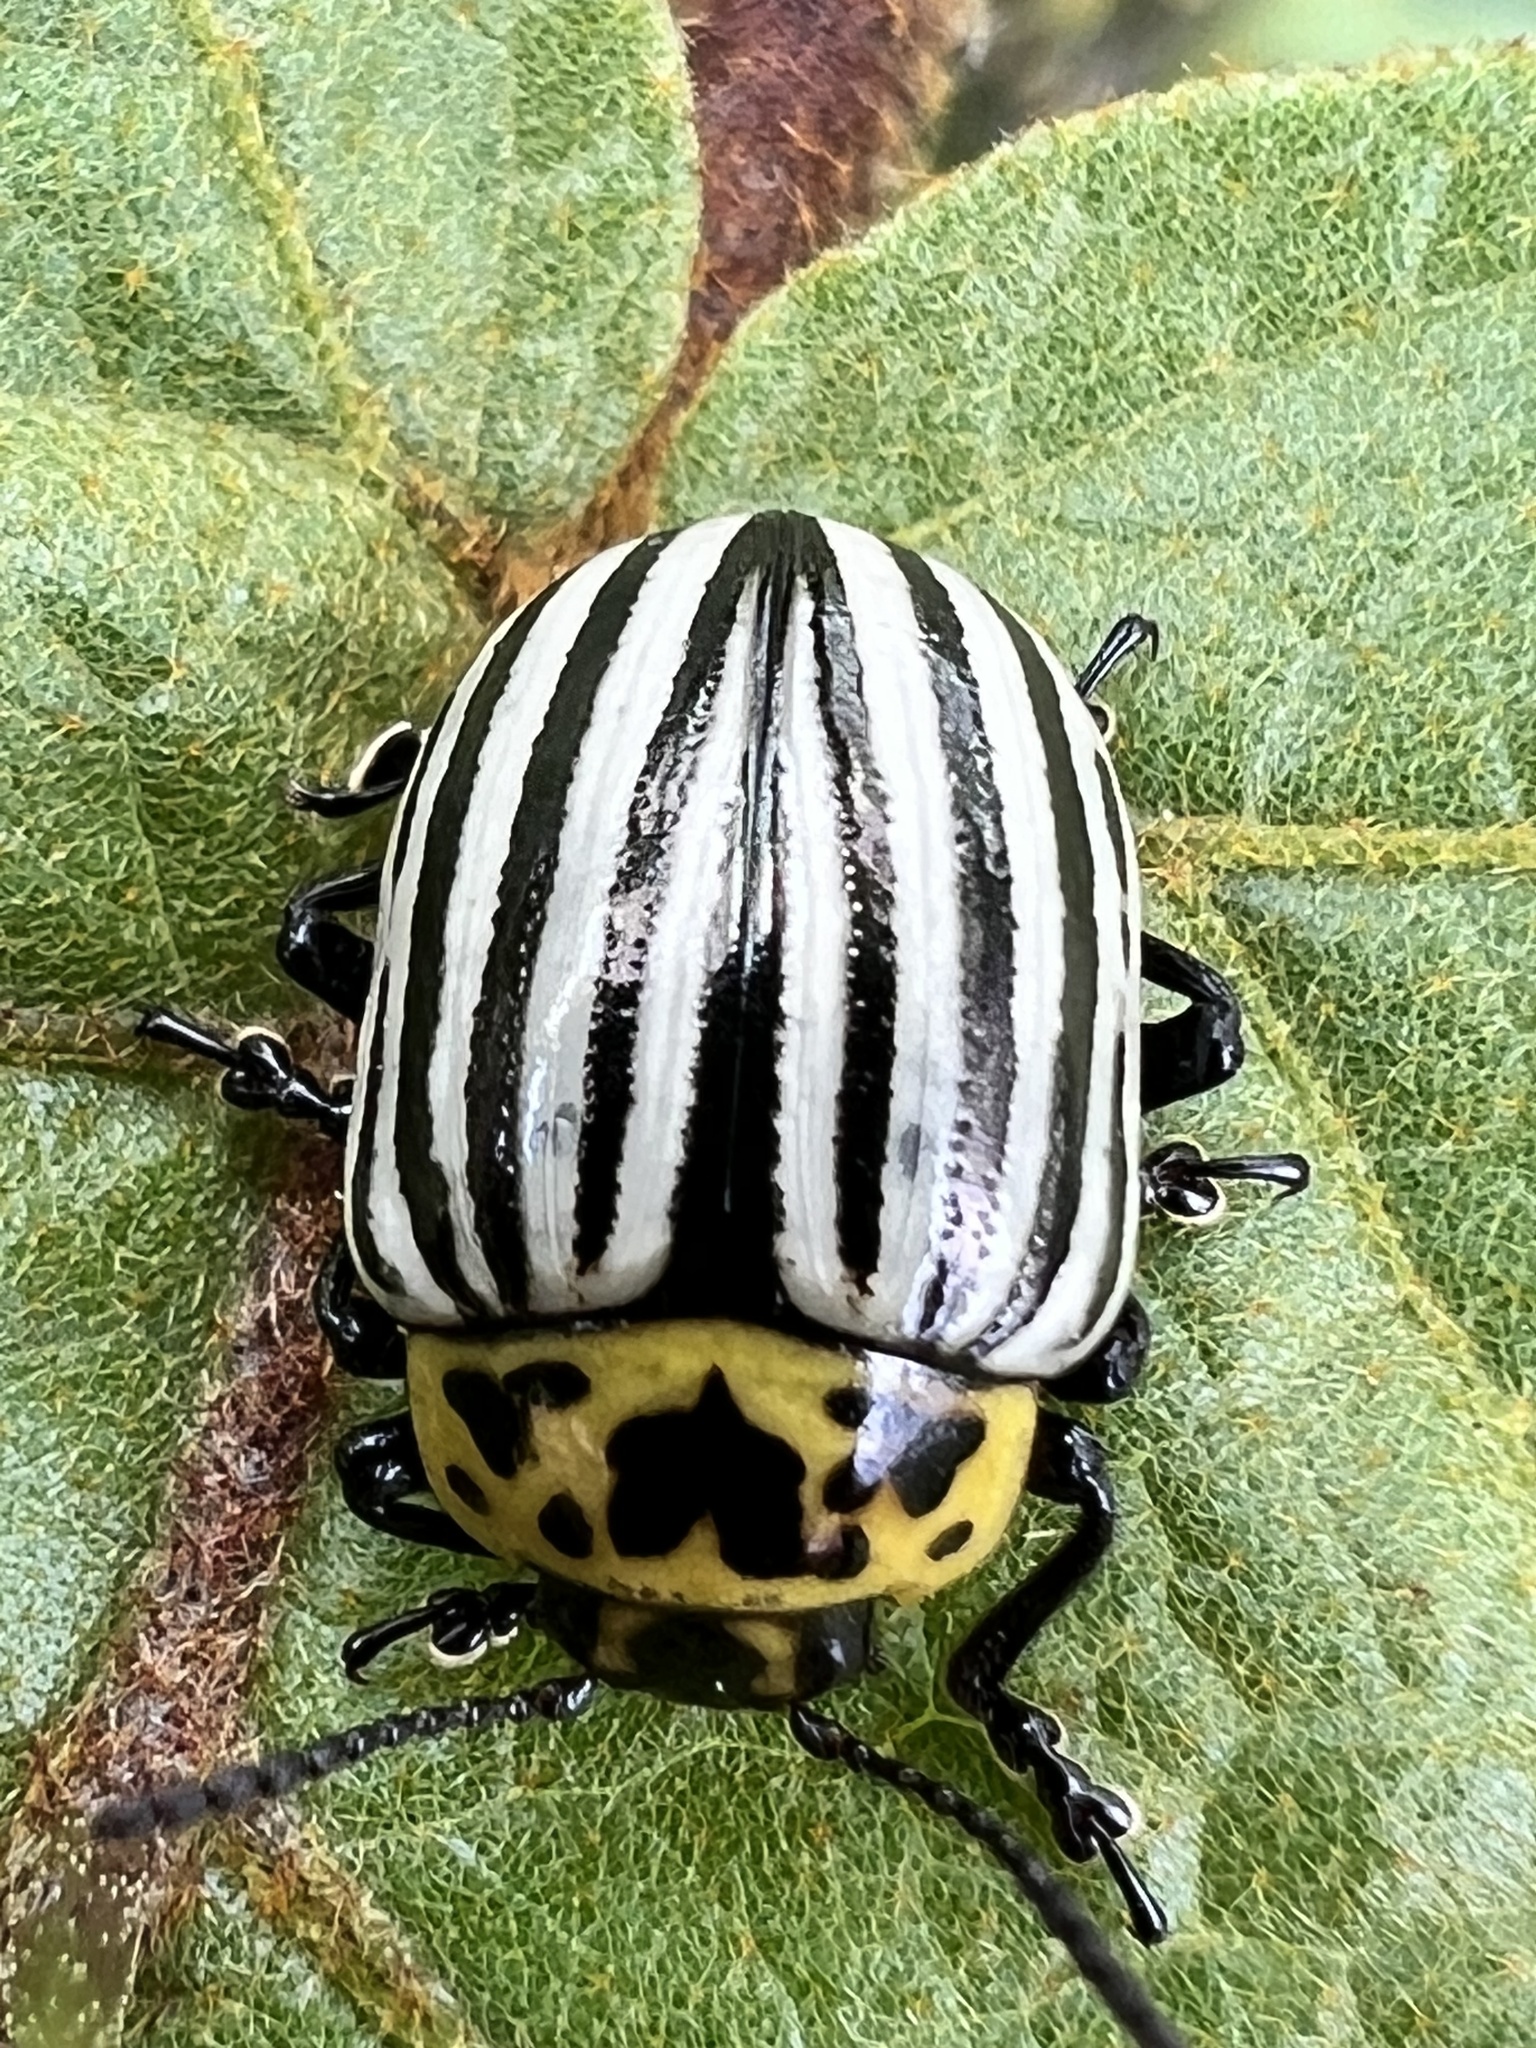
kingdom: Animalia
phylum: Arthropoda
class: Insecta
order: Coleoptera
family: Chrysomelidae
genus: Leptinotarsa
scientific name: Leptinotarsa
